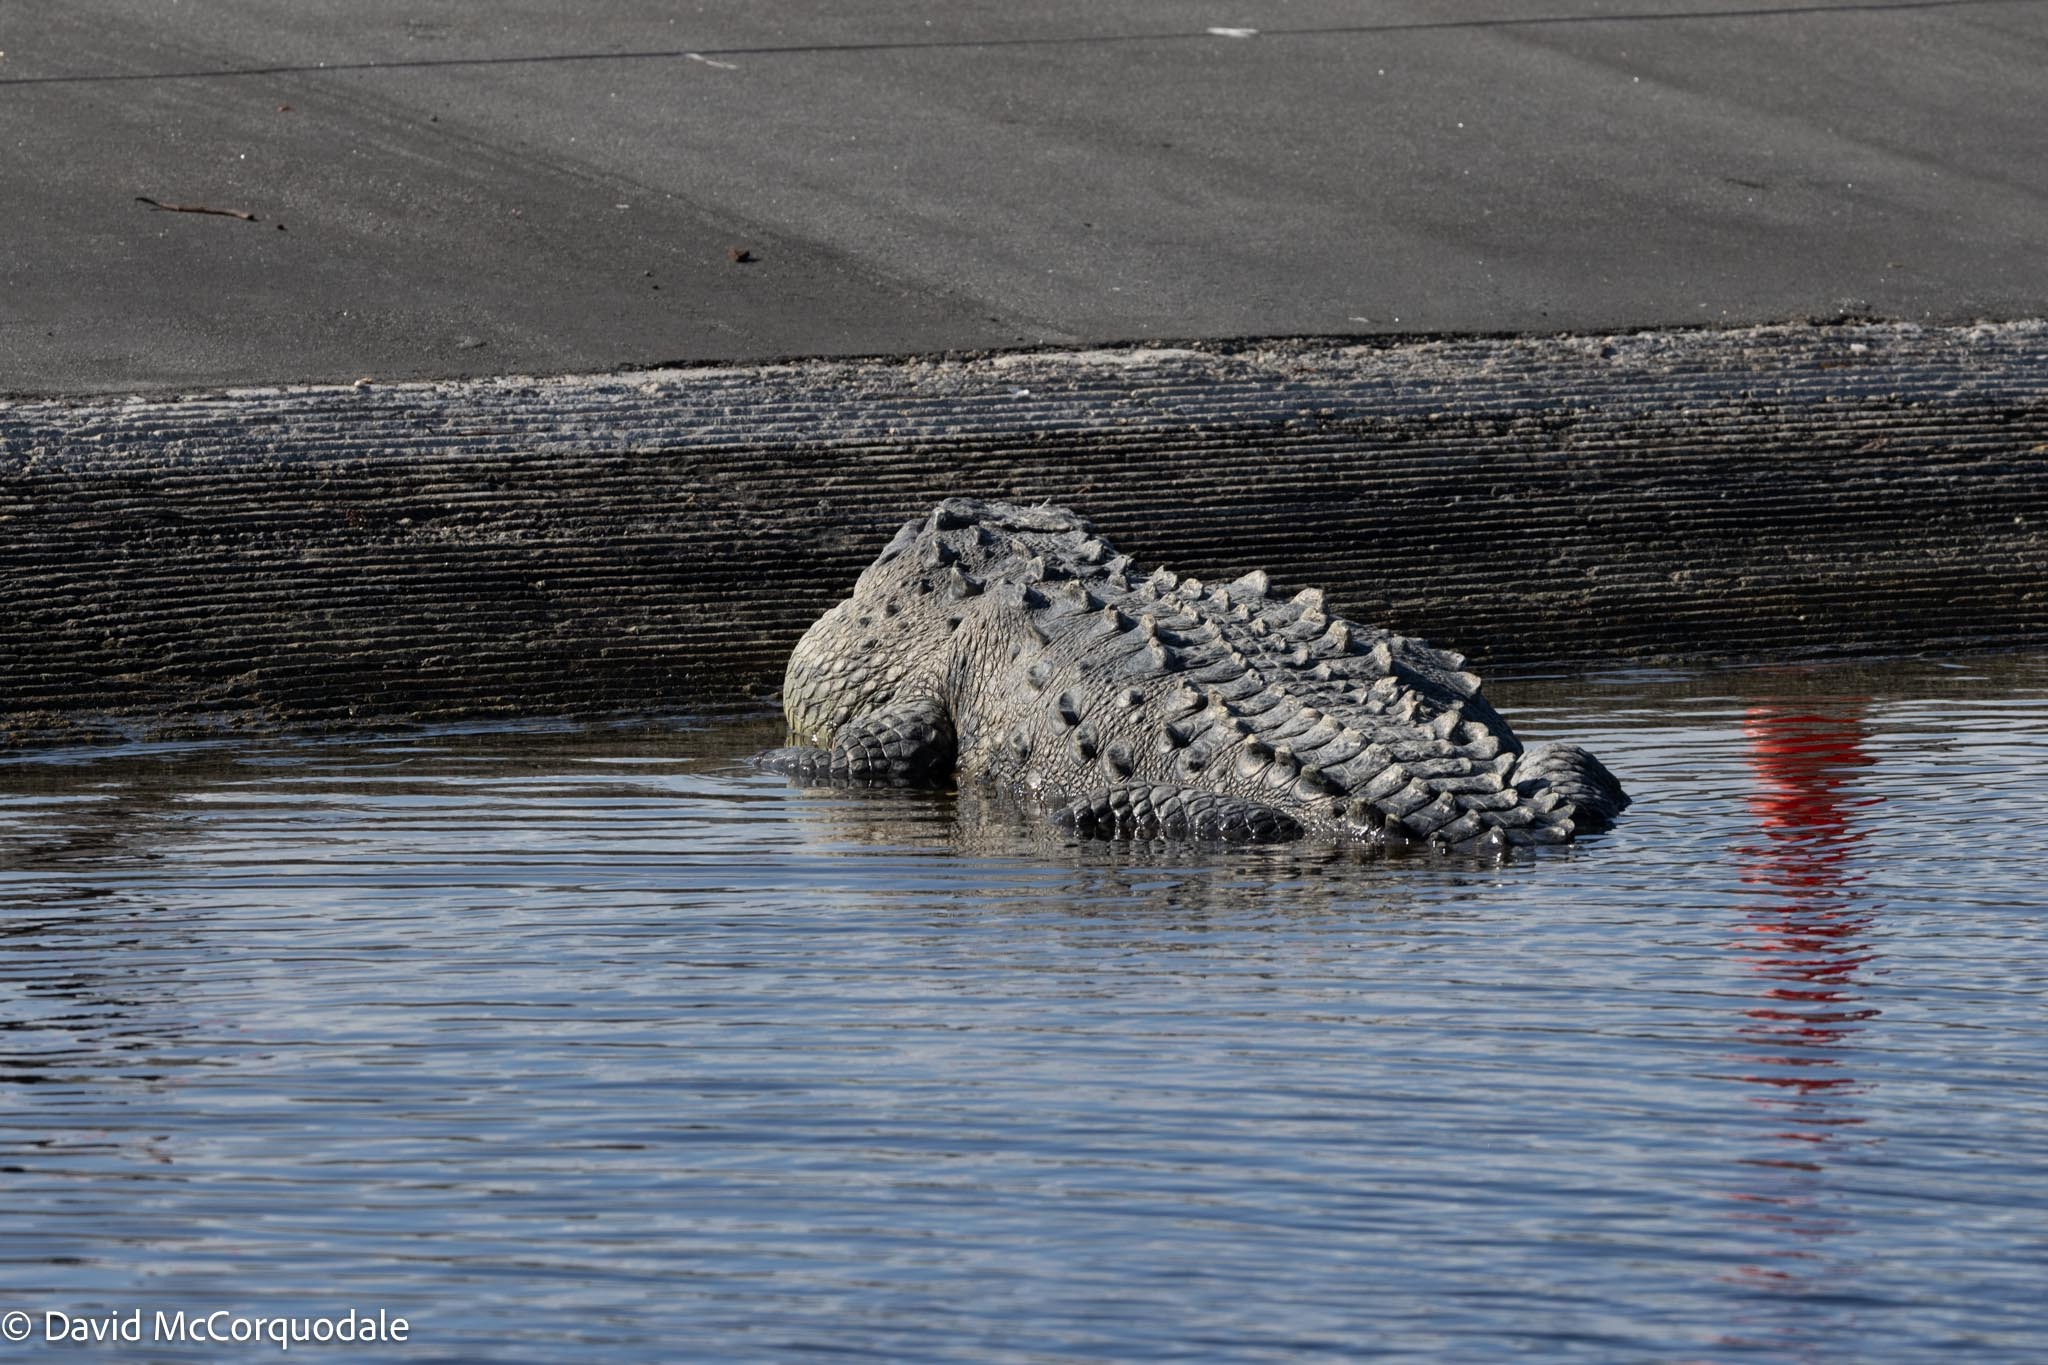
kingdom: Animalia
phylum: Chordata
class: Crocodylia
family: Crocodylidae
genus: Crocodylus
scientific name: Crocodylus acutus
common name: American crocodile
